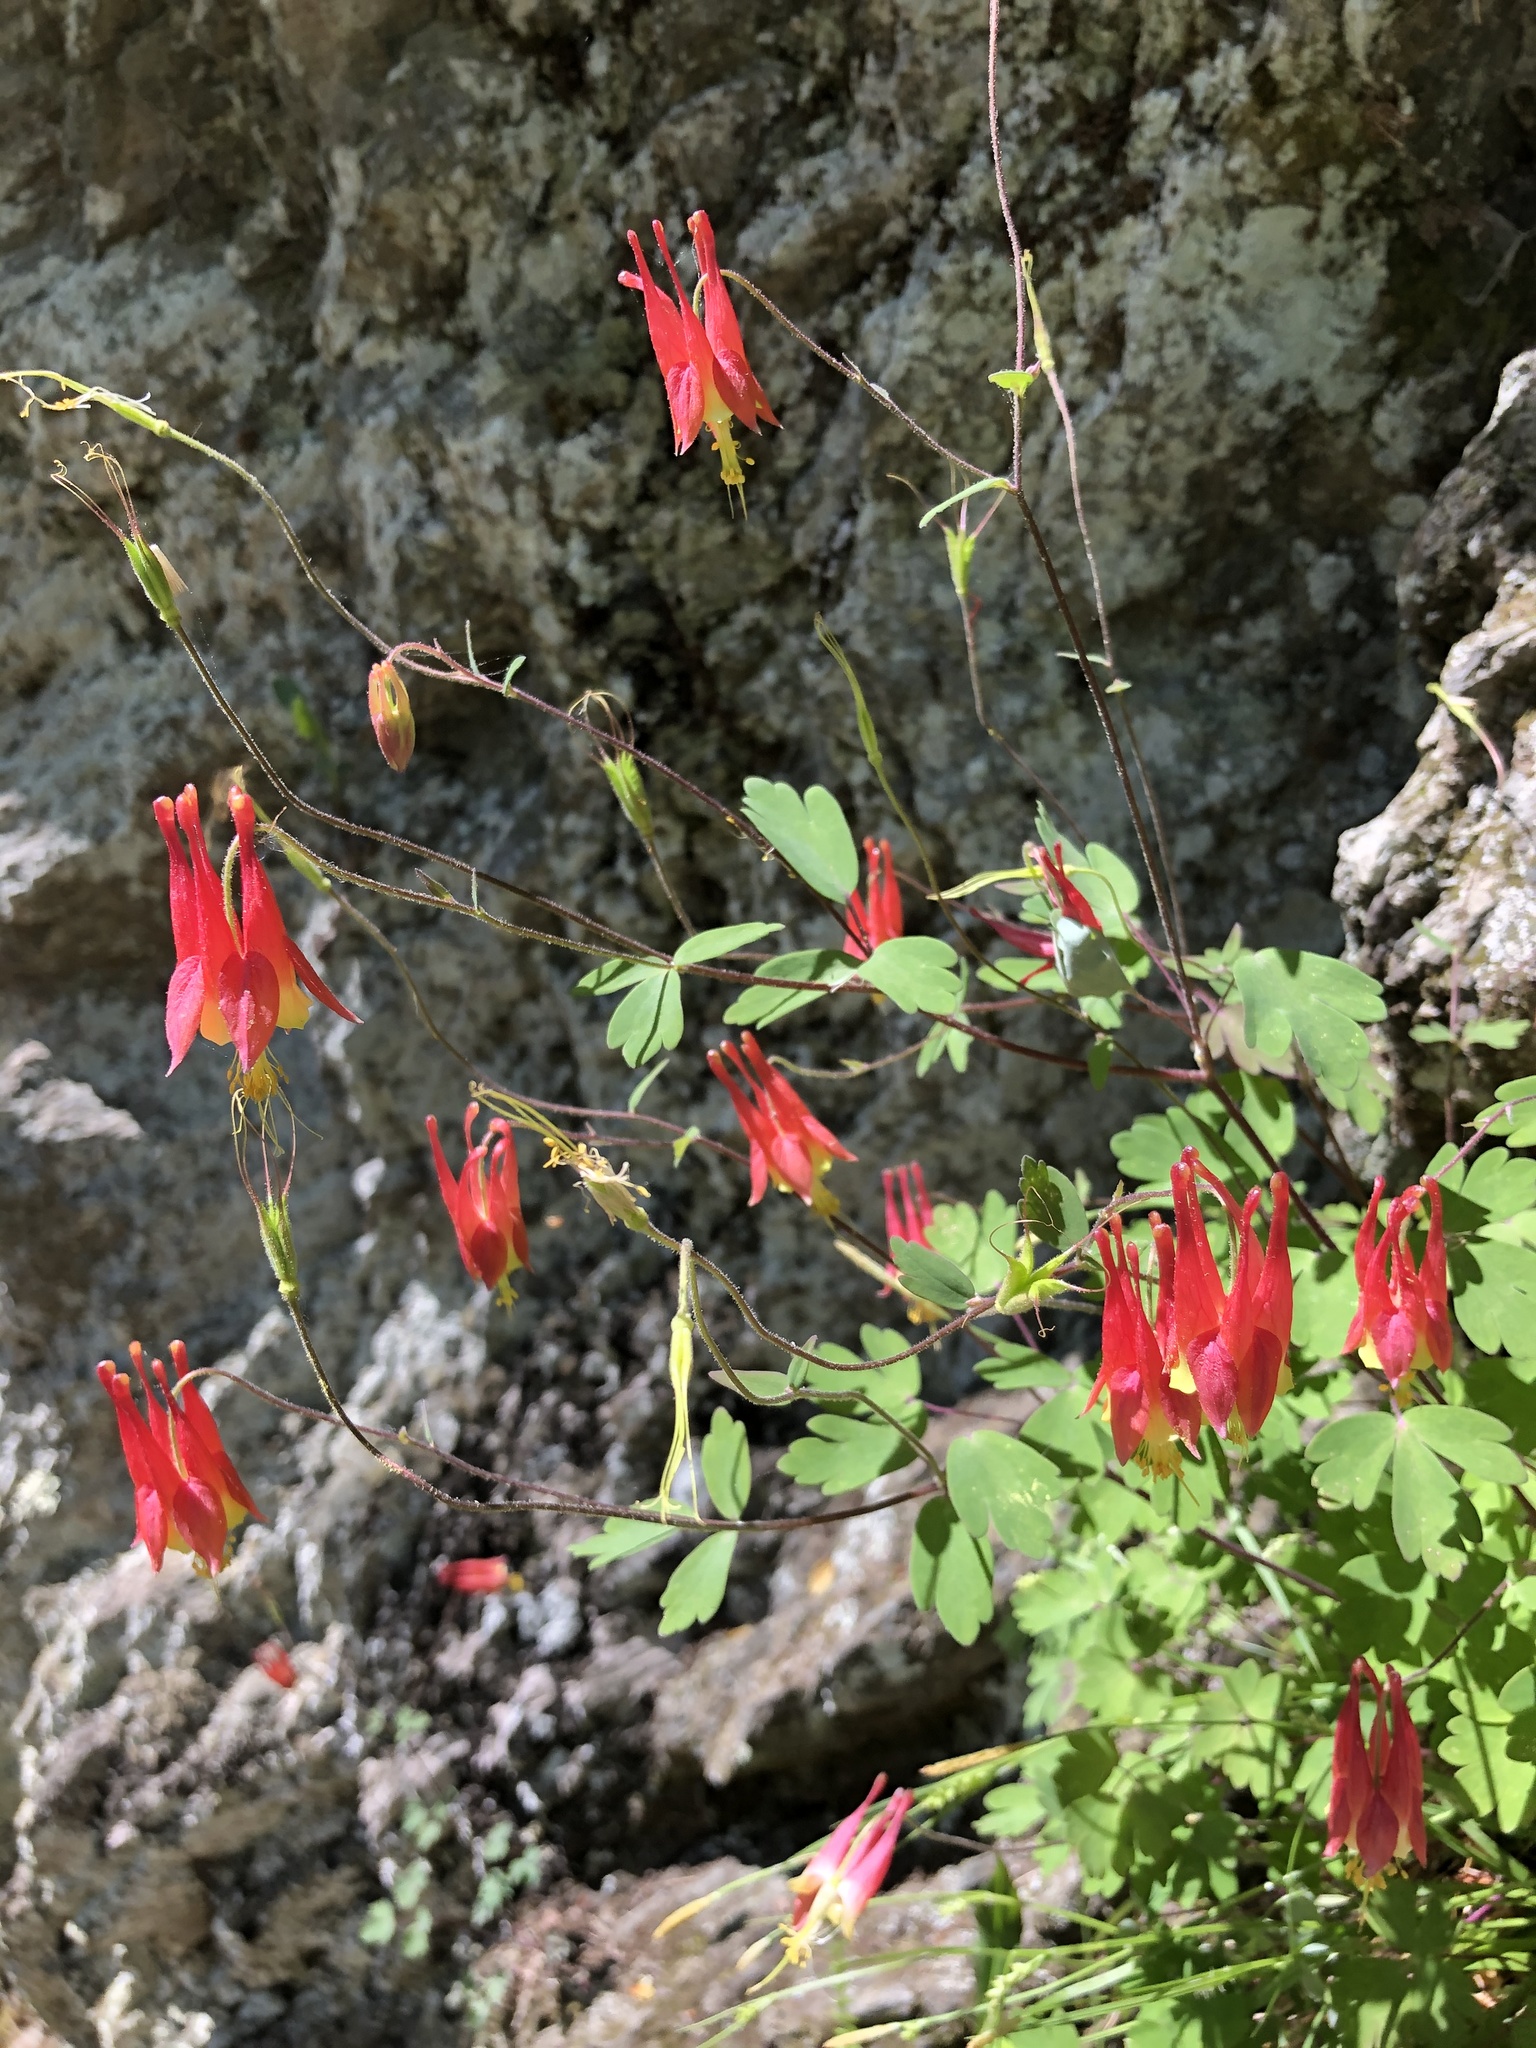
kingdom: Plantae
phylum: Tracheophyta
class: Magnoliopsida
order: Ranunculales
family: Ranunculaceae
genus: Aquilegia
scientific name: Aquilegia canadensis
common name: American columbine
